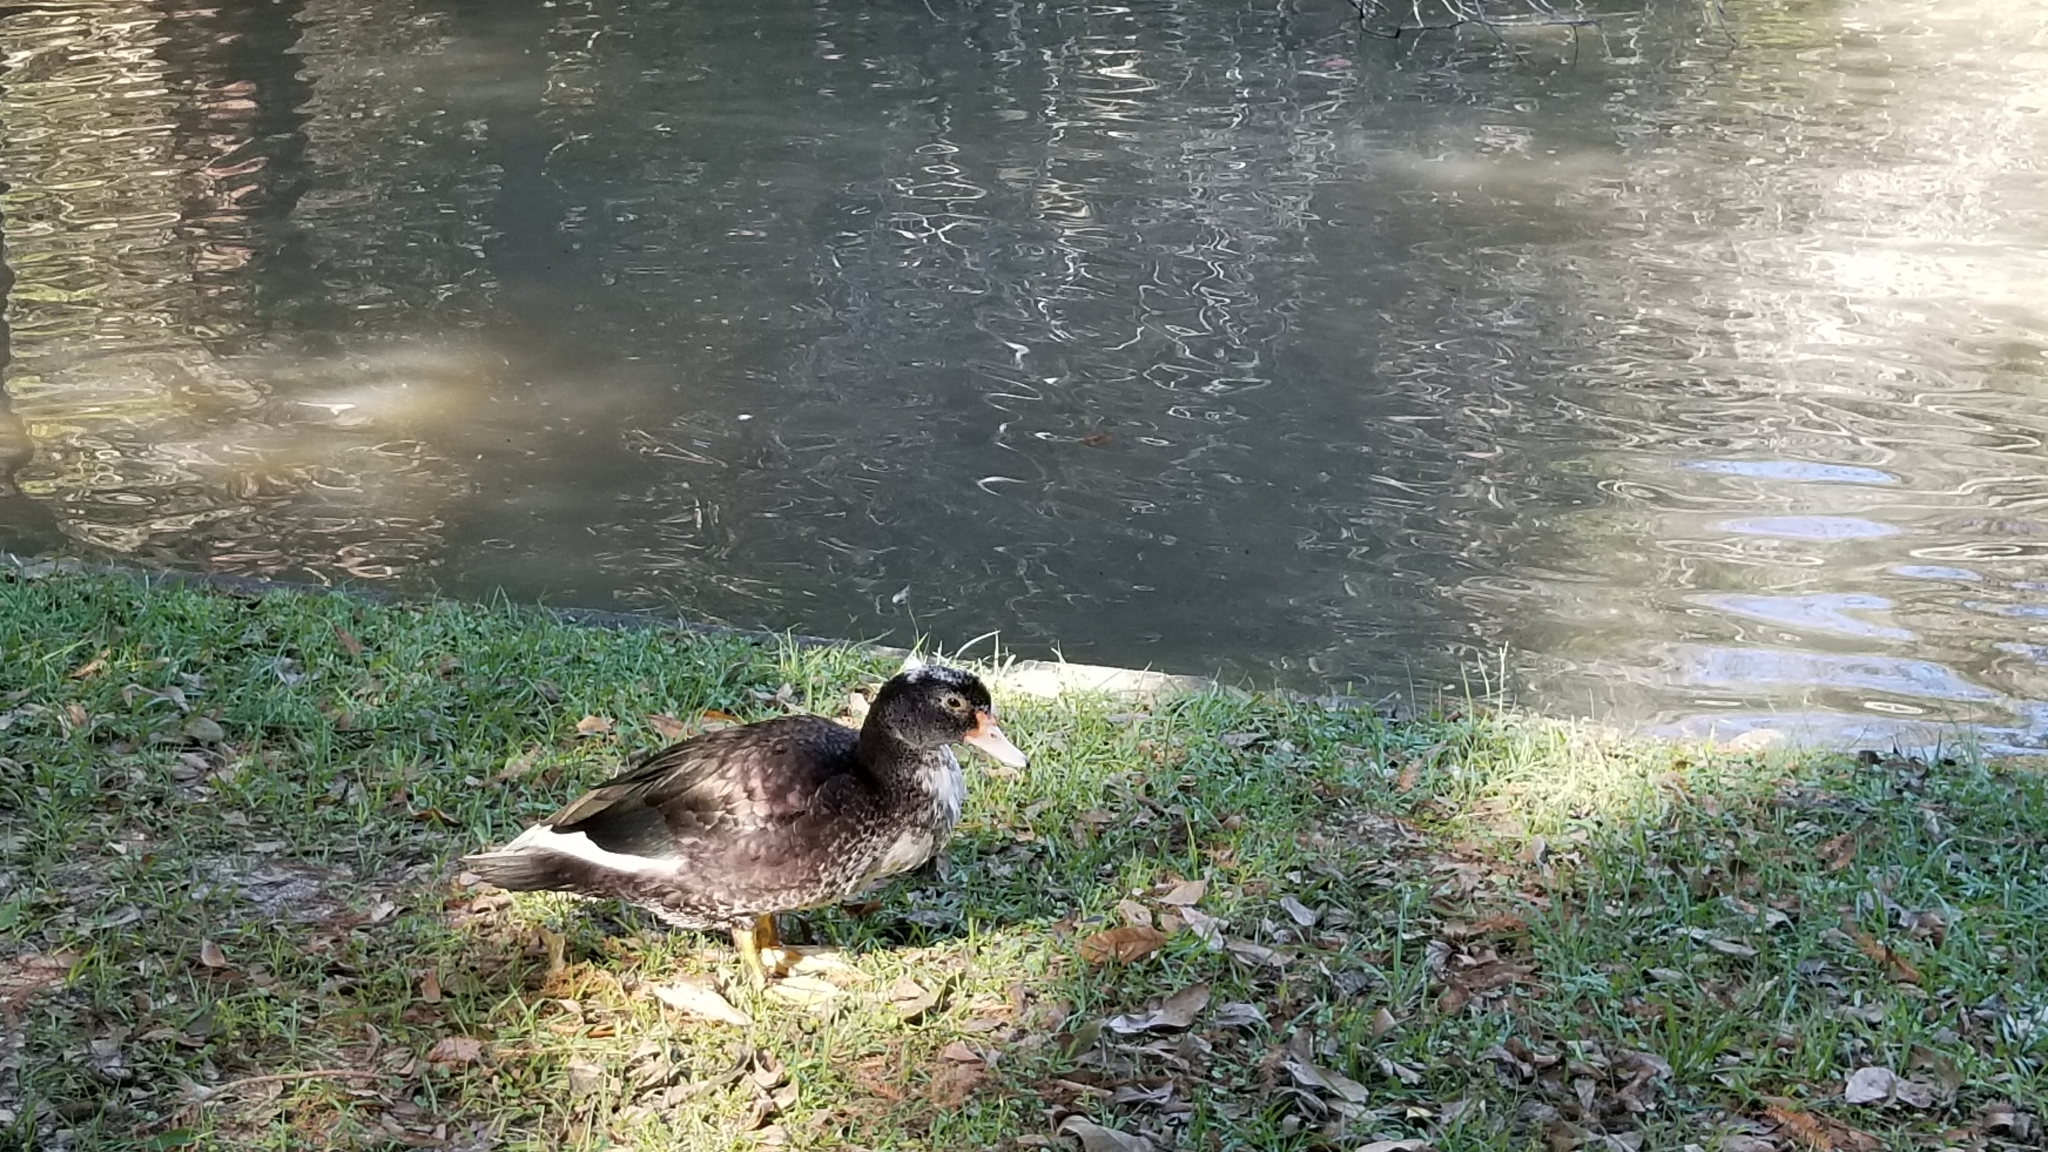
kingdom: Animalia
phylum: Chordata
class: Aves
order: Anseriformes
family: Anatidae
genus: Cairina
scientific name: Cairina moschata
